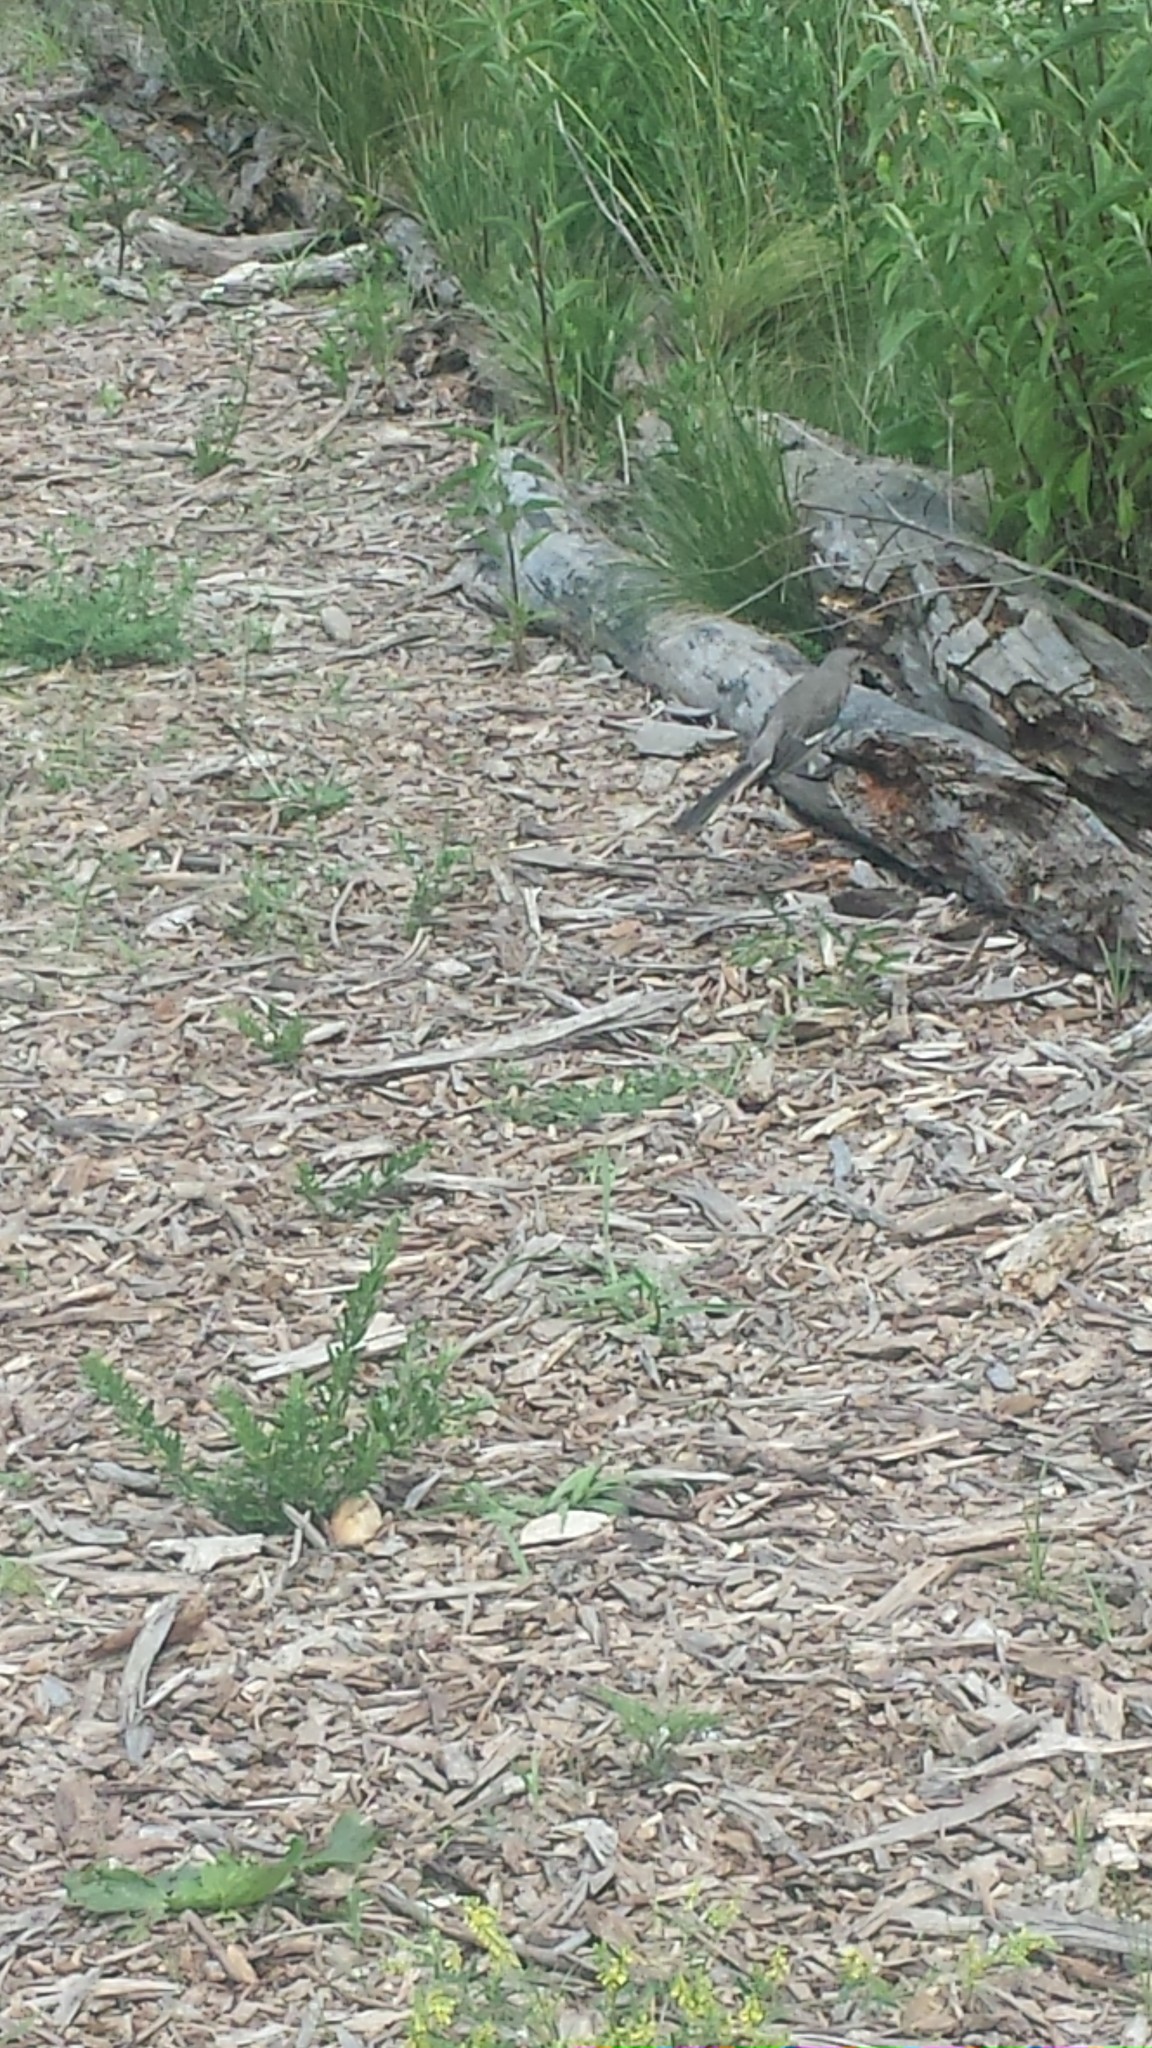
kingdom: Animalia
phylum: Chordata
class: Aves
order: Passeriformes
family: Mimidae
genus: Mimus
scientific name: Mimus polyglottos
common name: Northern mockingbird
